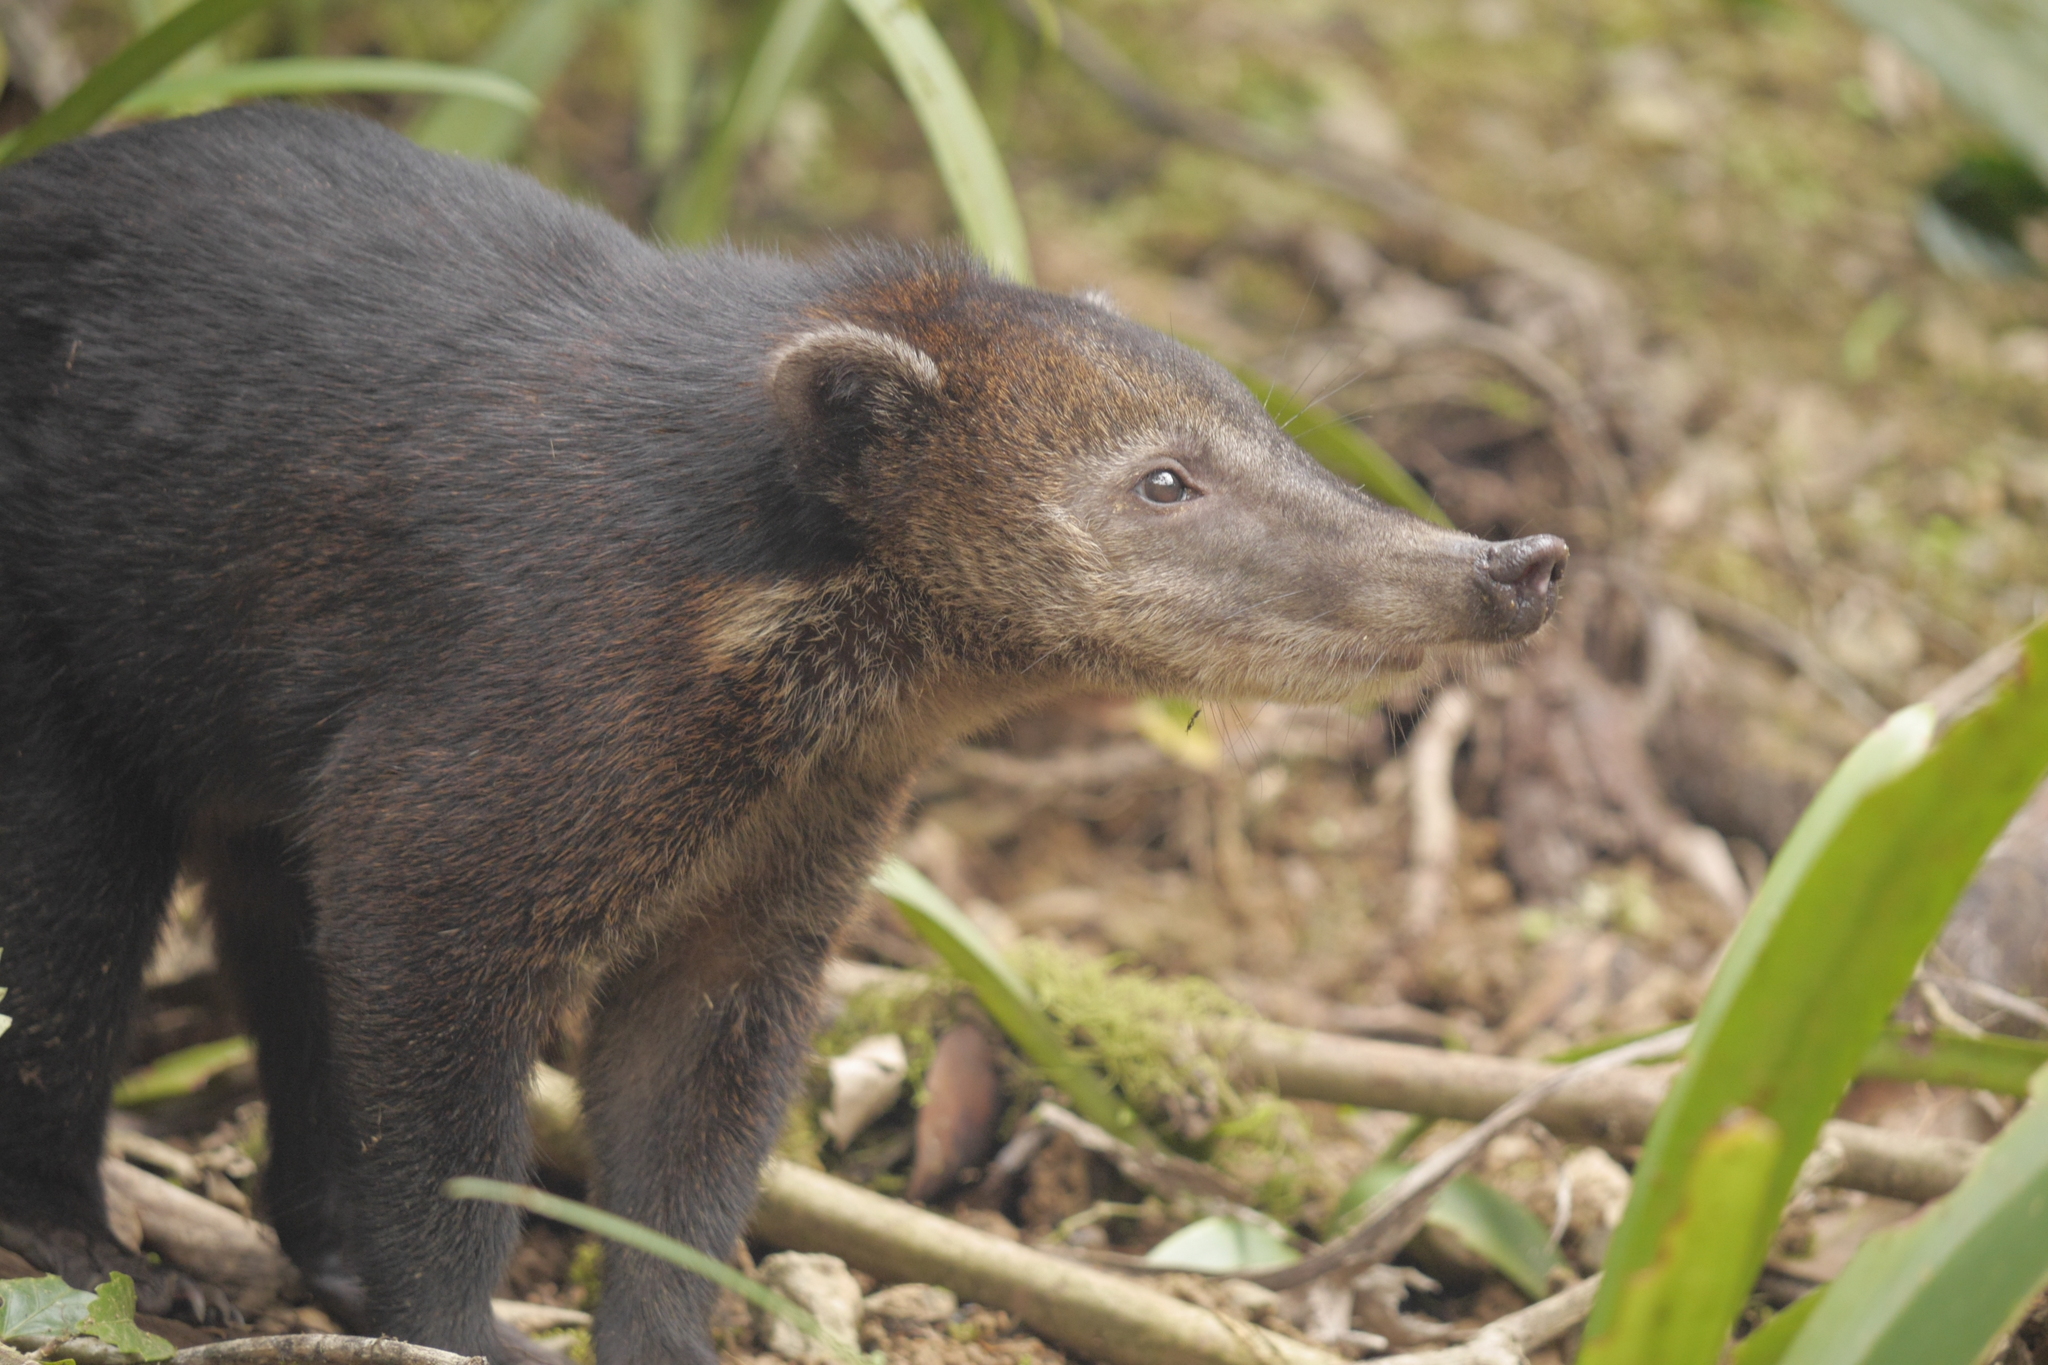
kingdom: Animalia
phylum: Chordata
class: Mammalia
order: Carnivora
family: Procyonidae
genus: Nasua
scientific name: Nasua nasua
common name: South american coati
